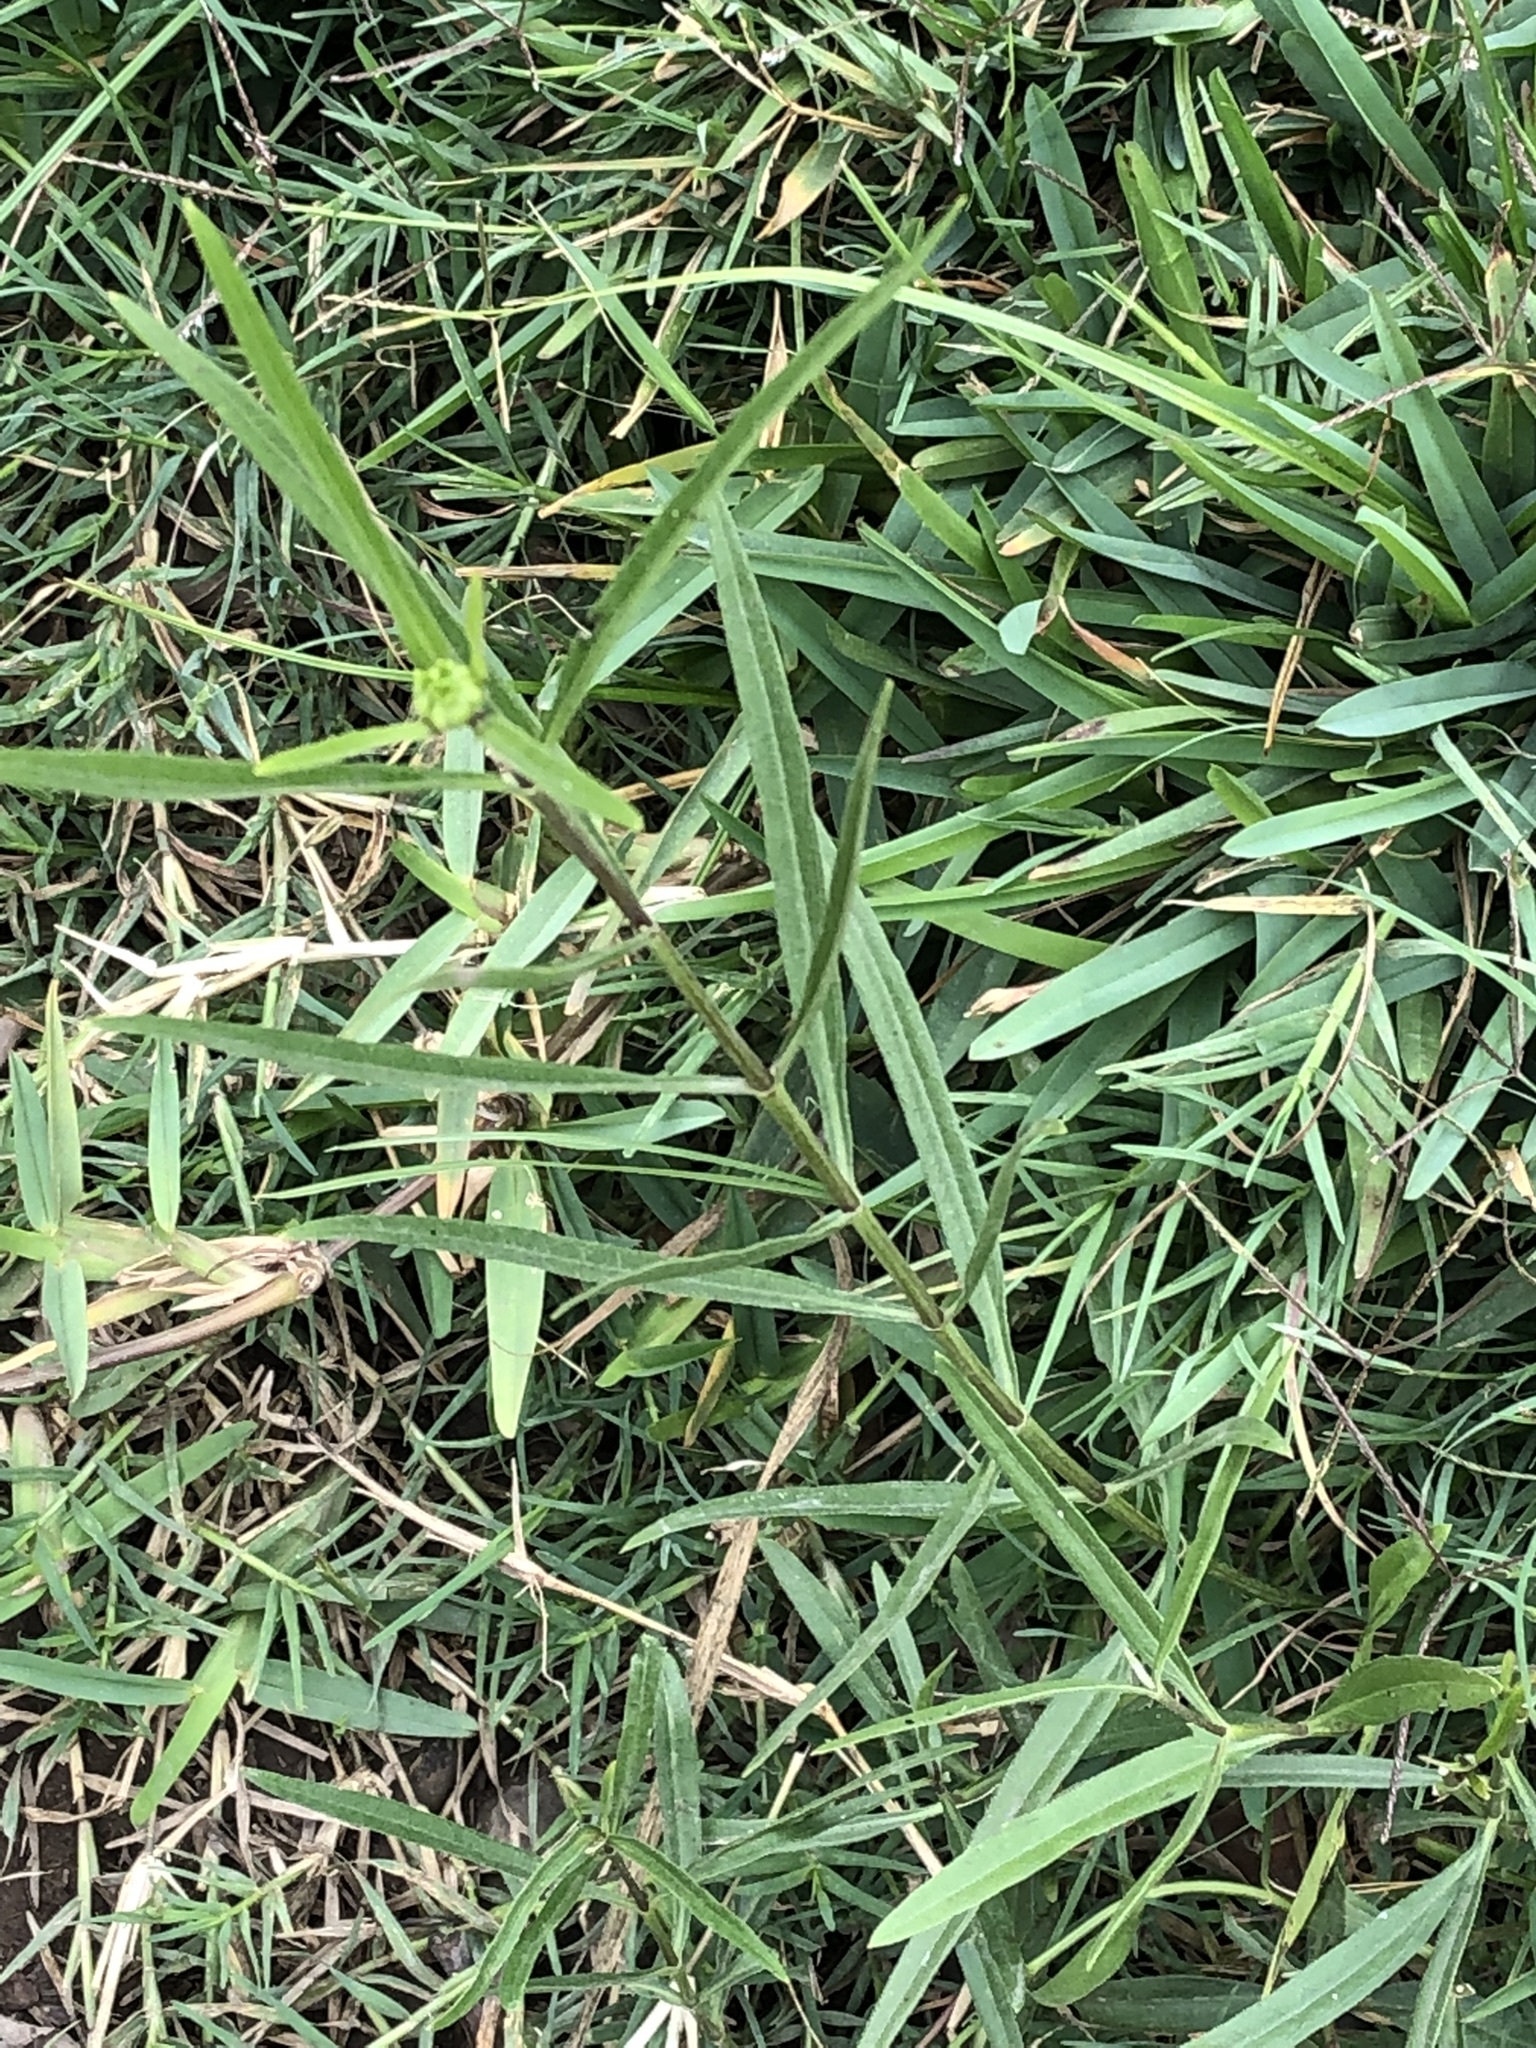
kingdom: Plantae
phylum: Tracheophyta
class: Magnoliopsida
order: Asterales
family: Asteraceae
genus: Pascalia
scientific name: Pascalia glauca
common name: Beach creeping oxeye
